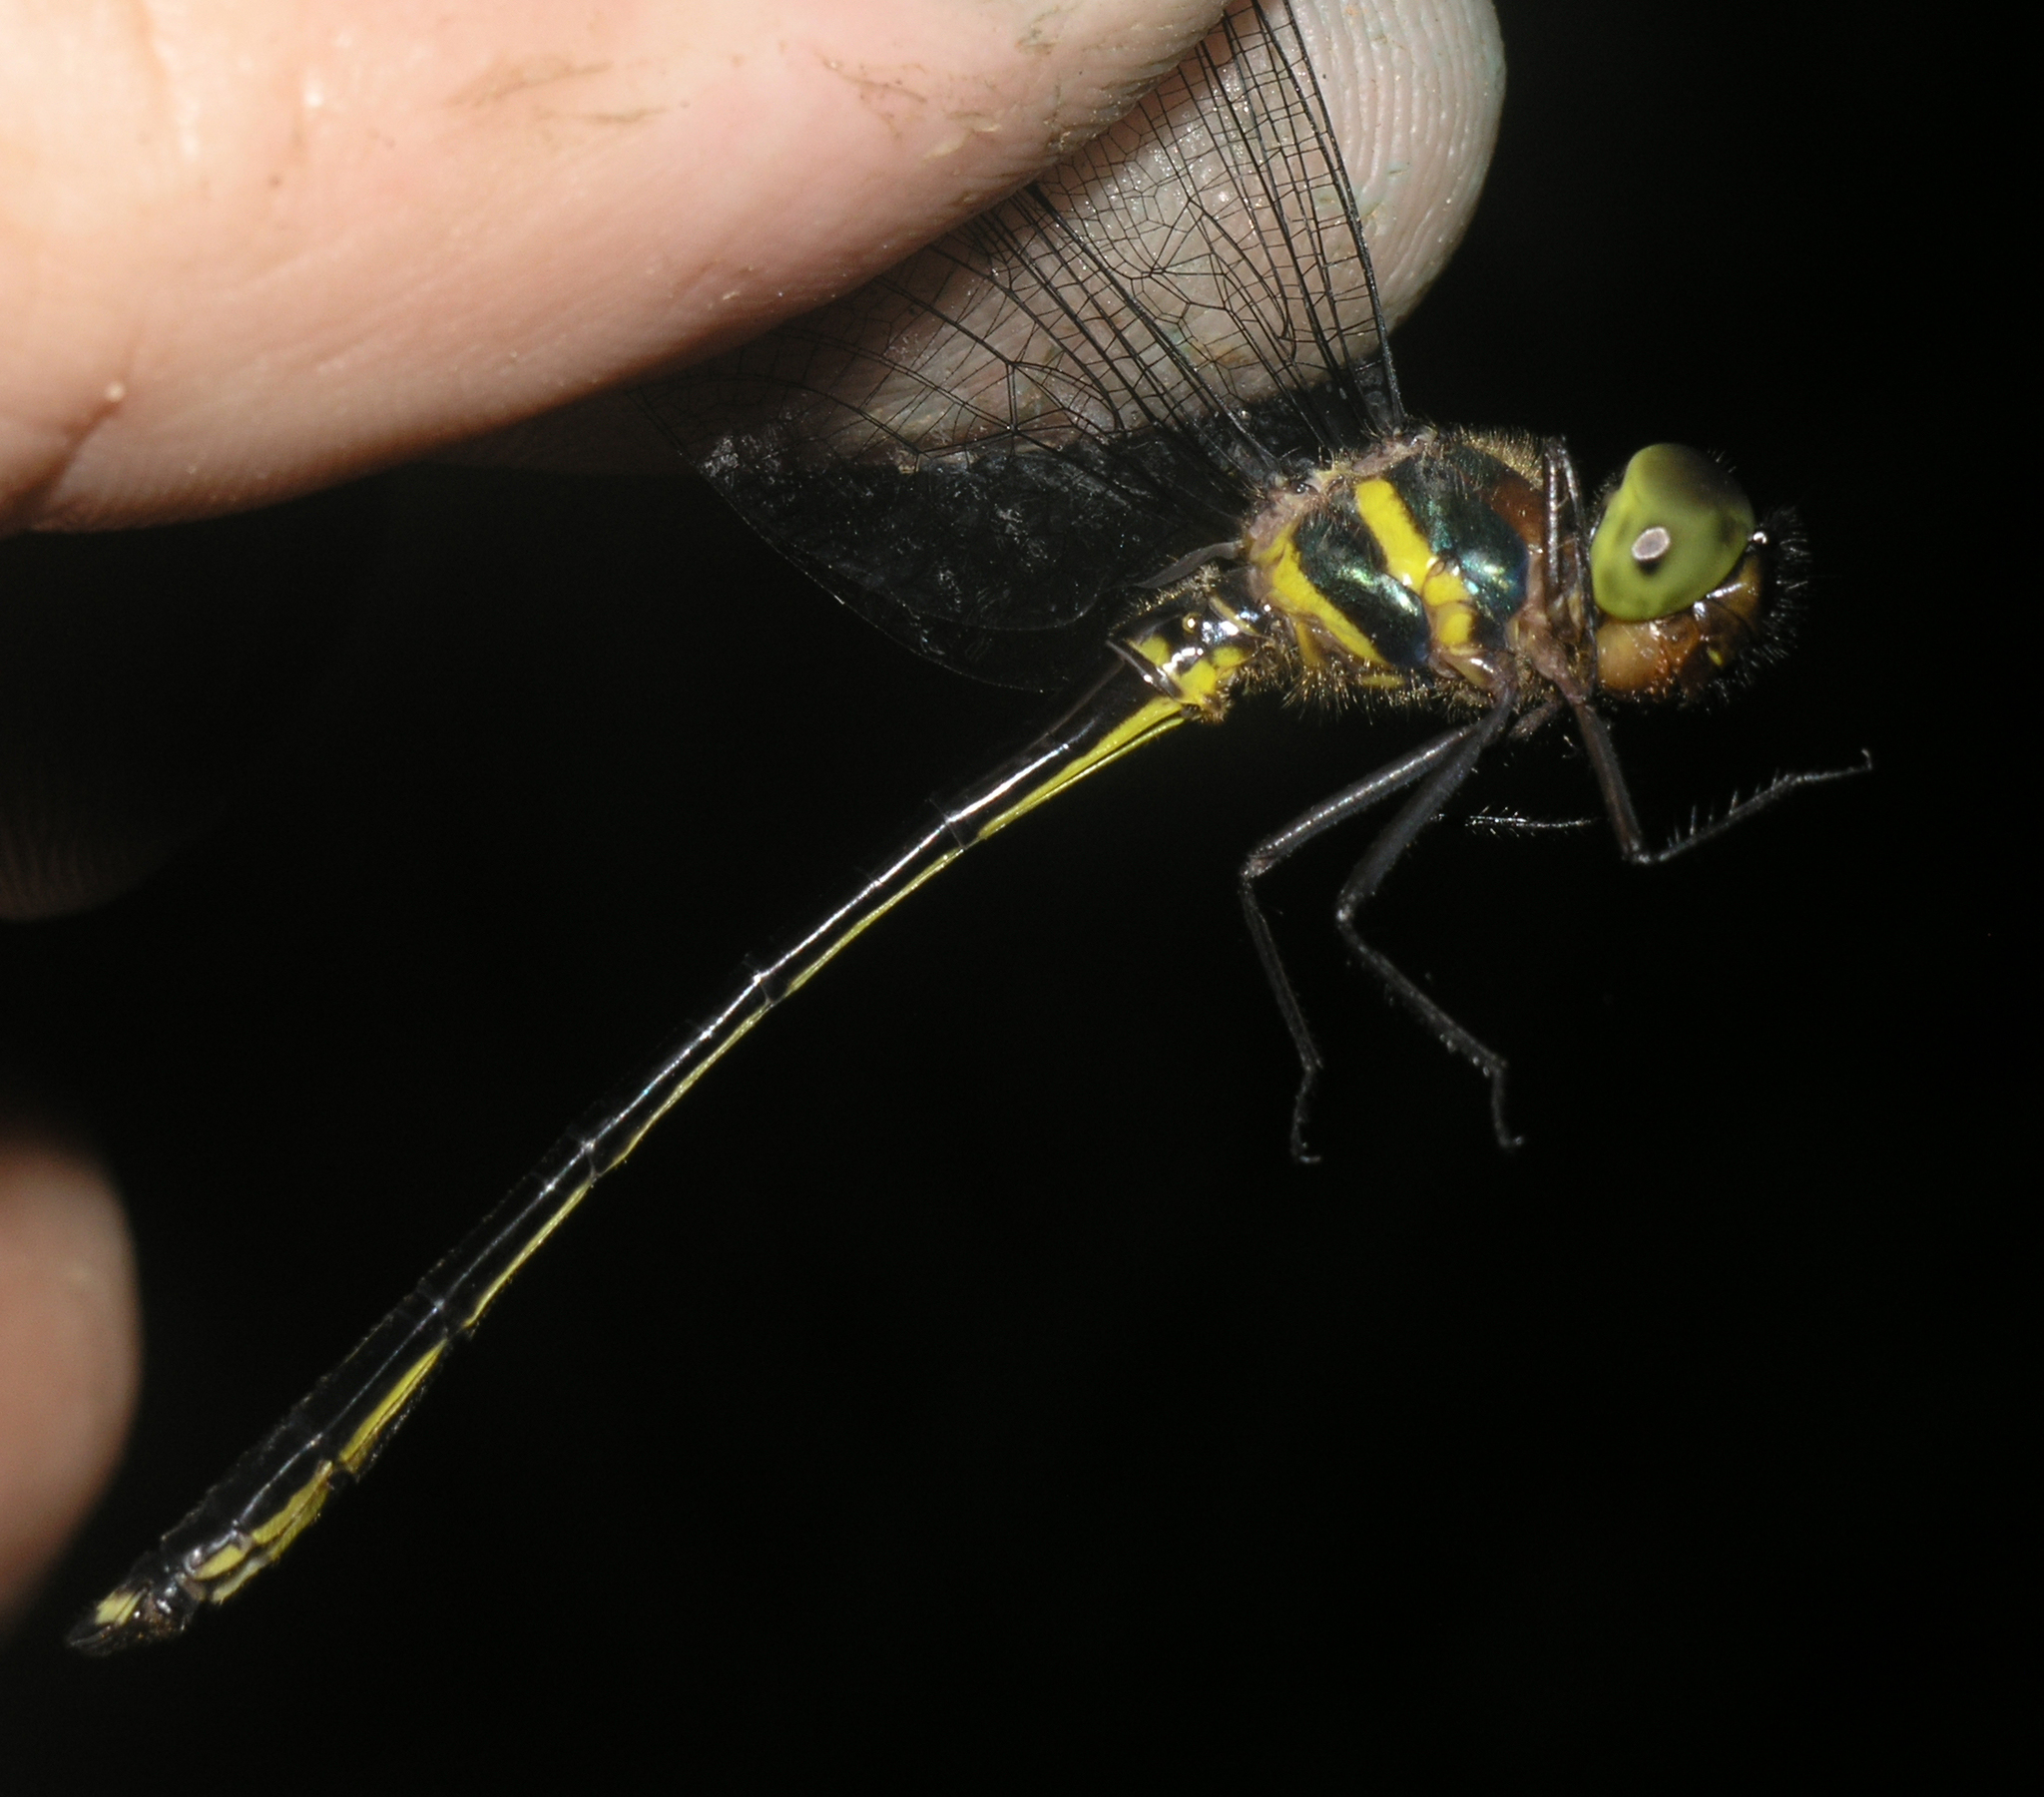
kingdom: Animalia
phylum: Arthropoda
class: Insecta
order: Odonata
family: Corduliidae
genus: Macromidia
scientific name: Macromidia rapida
